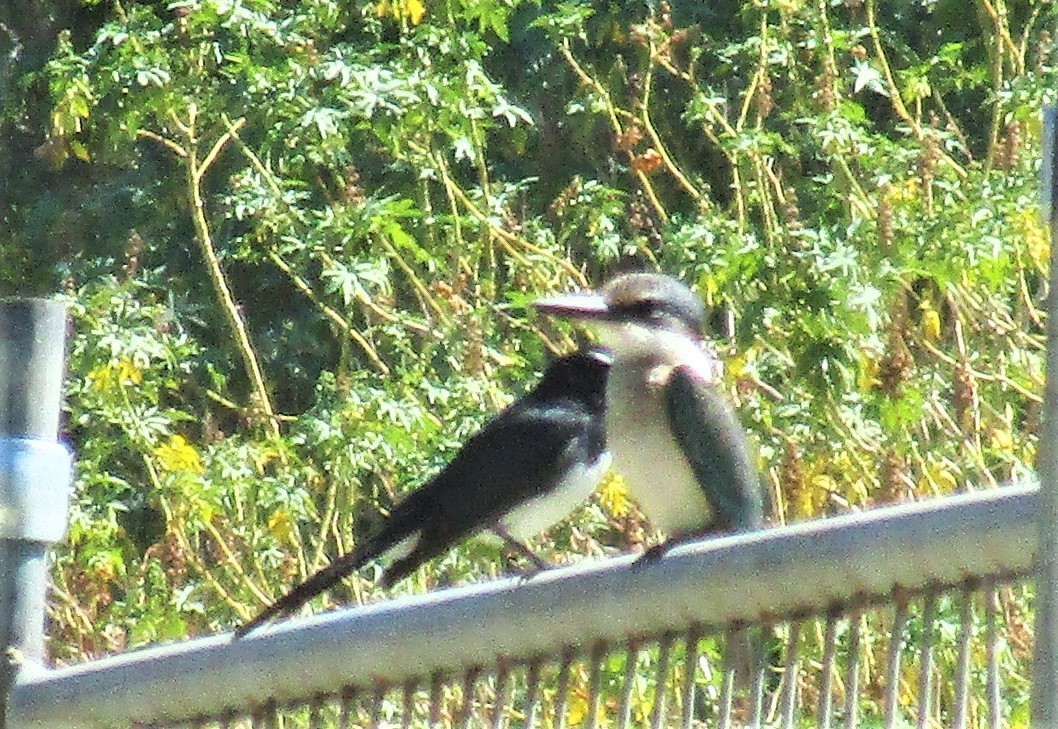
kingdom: Animalia
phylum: Chordata
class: Aves
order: Coraciiformes
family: Alcedinidae
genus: Todiramphus
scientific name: Todiramphus sanctus
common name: Sacred kingfisher
